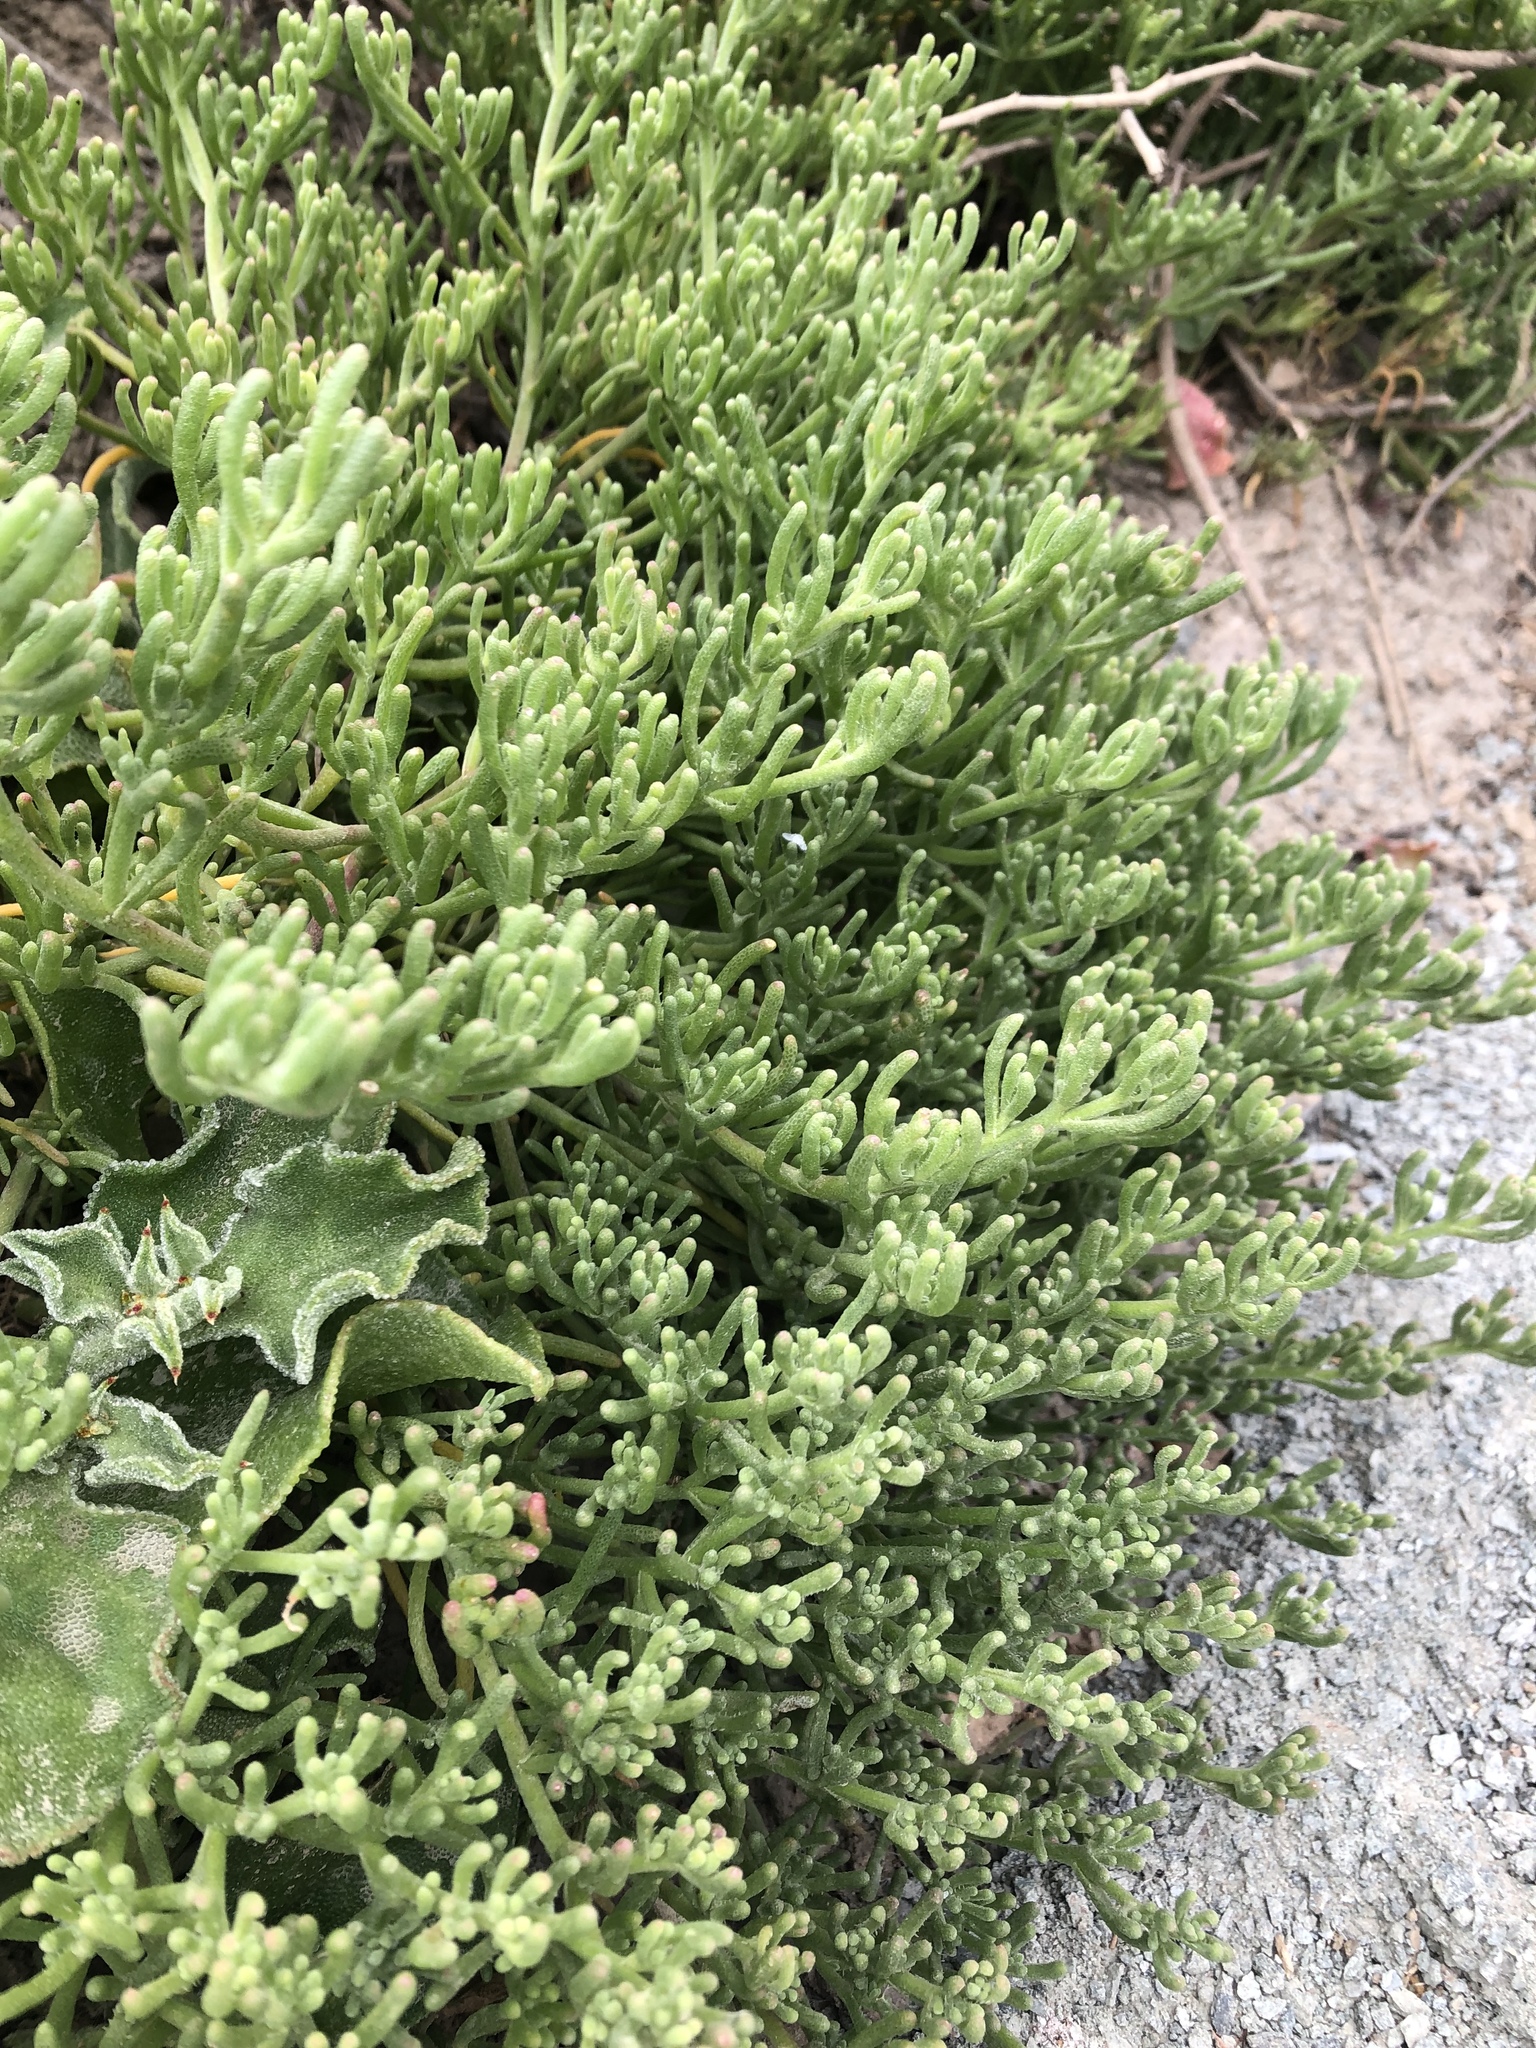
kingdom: Plantae
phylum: Tracheophyta
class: Magnoliopsida
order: Caryophyllales
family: Aizoaceae
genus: Mesembryanthemum
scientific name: Mesembryanthemum nodiflorum
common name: Slenderleaf iceplant
